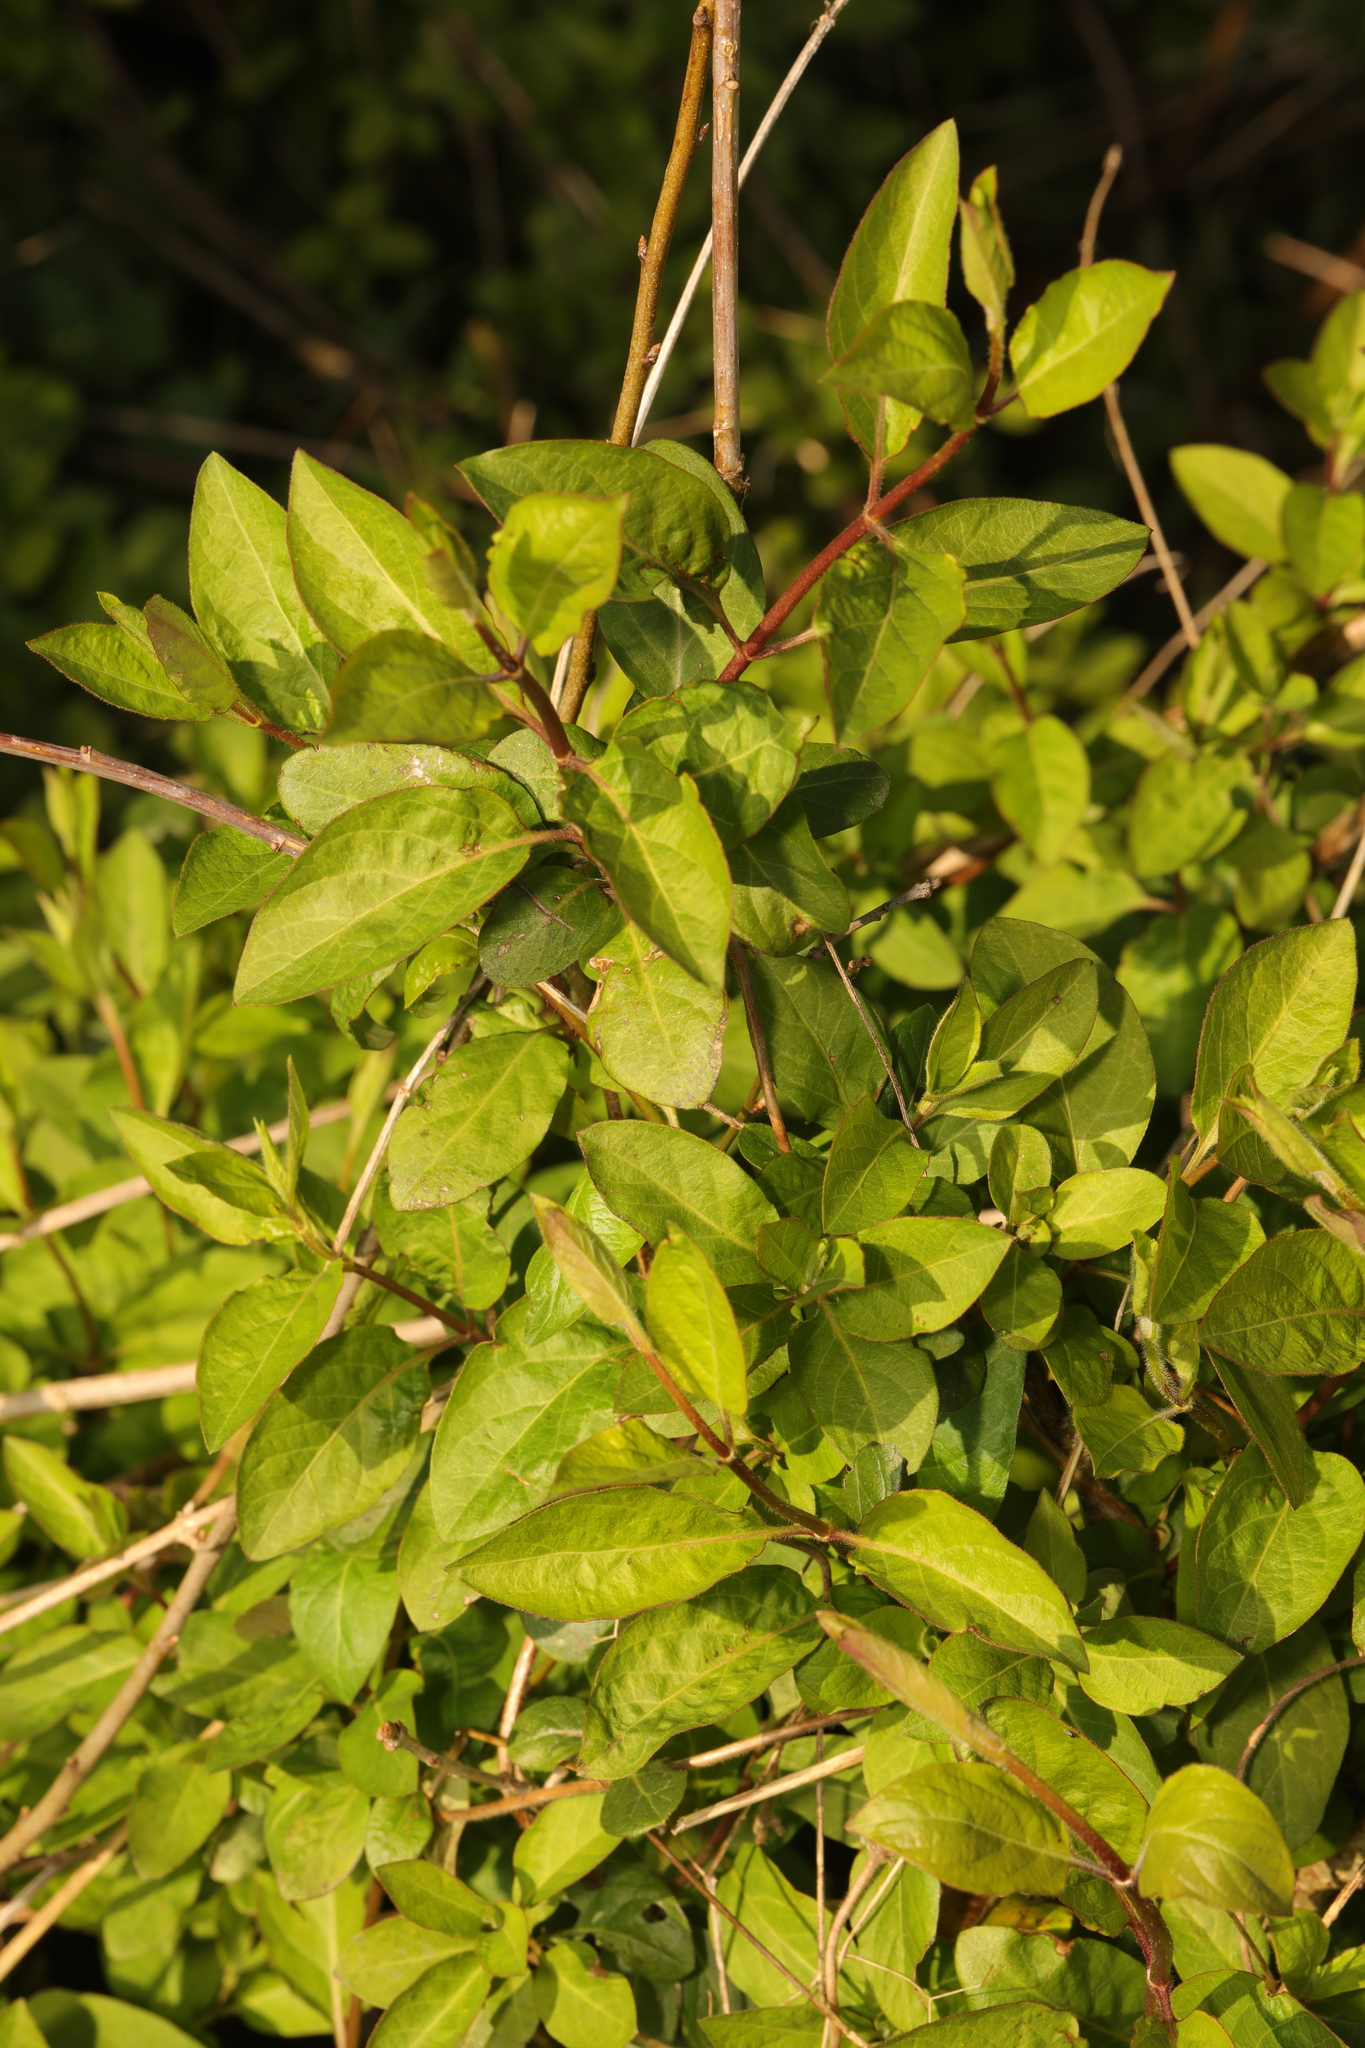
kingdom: Plantae
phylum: Tracheophyta
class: Magnoliopsida
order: Rosales
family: Rosaceae
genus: Prunus
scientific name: Prunus spinosa
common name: Blackthorn
